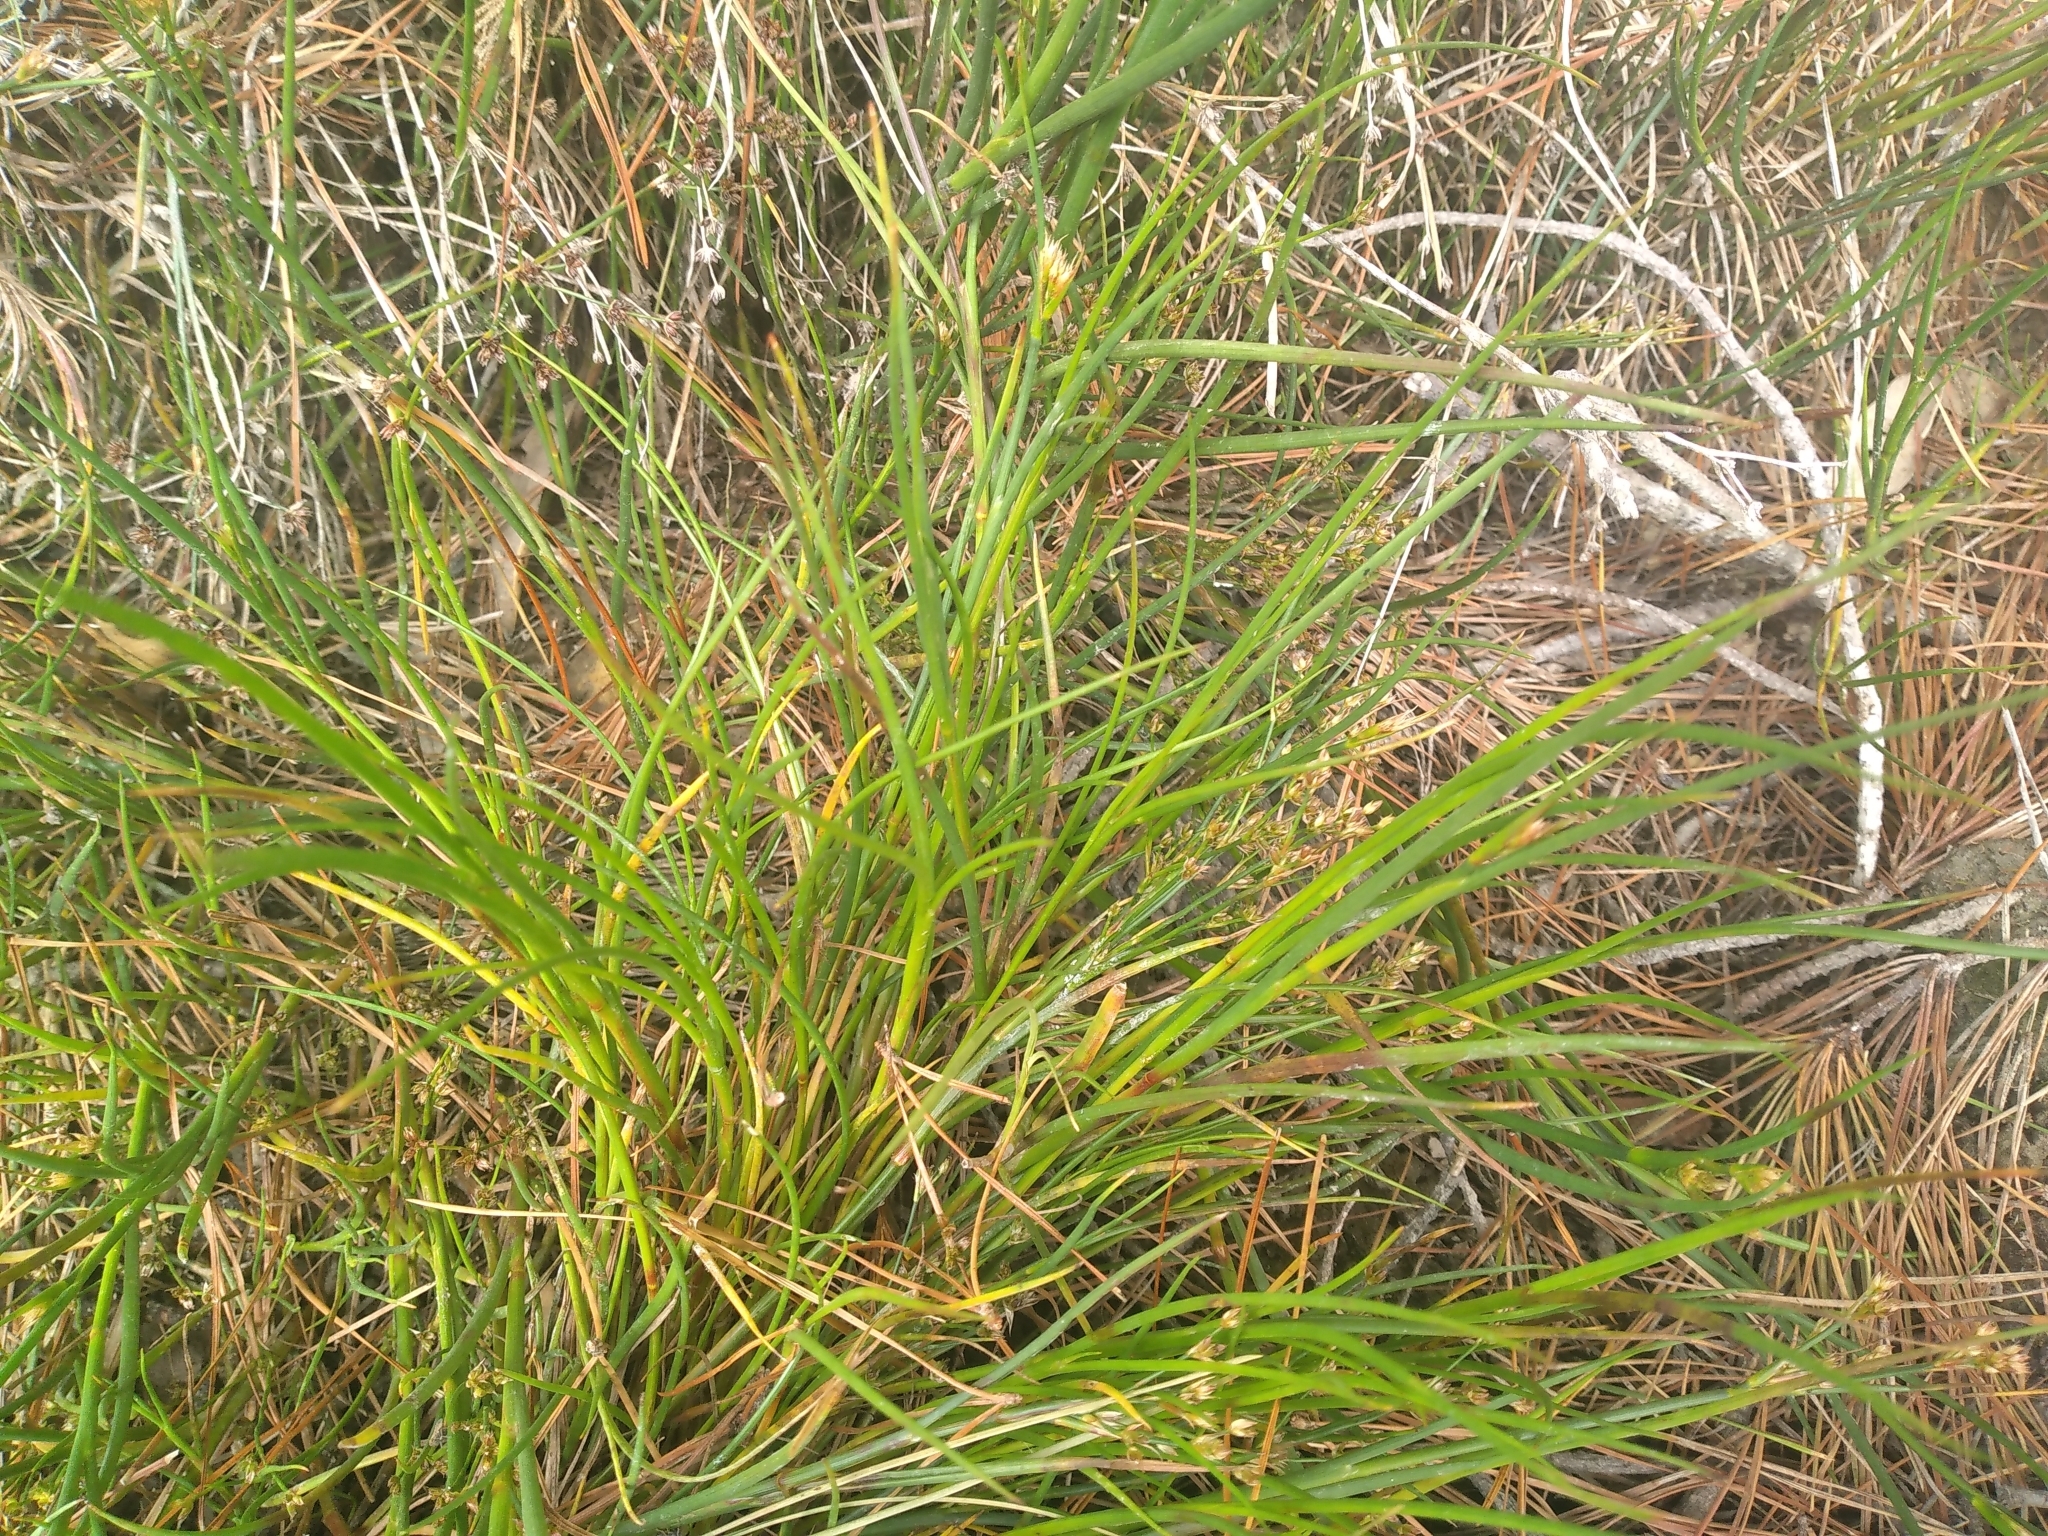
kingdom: Plantae
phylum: Tracheophyta
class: Liliopsida
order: Poales
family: Juncaceae
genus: Juncus
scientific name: Juncus articulatus
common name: Jointed rush
